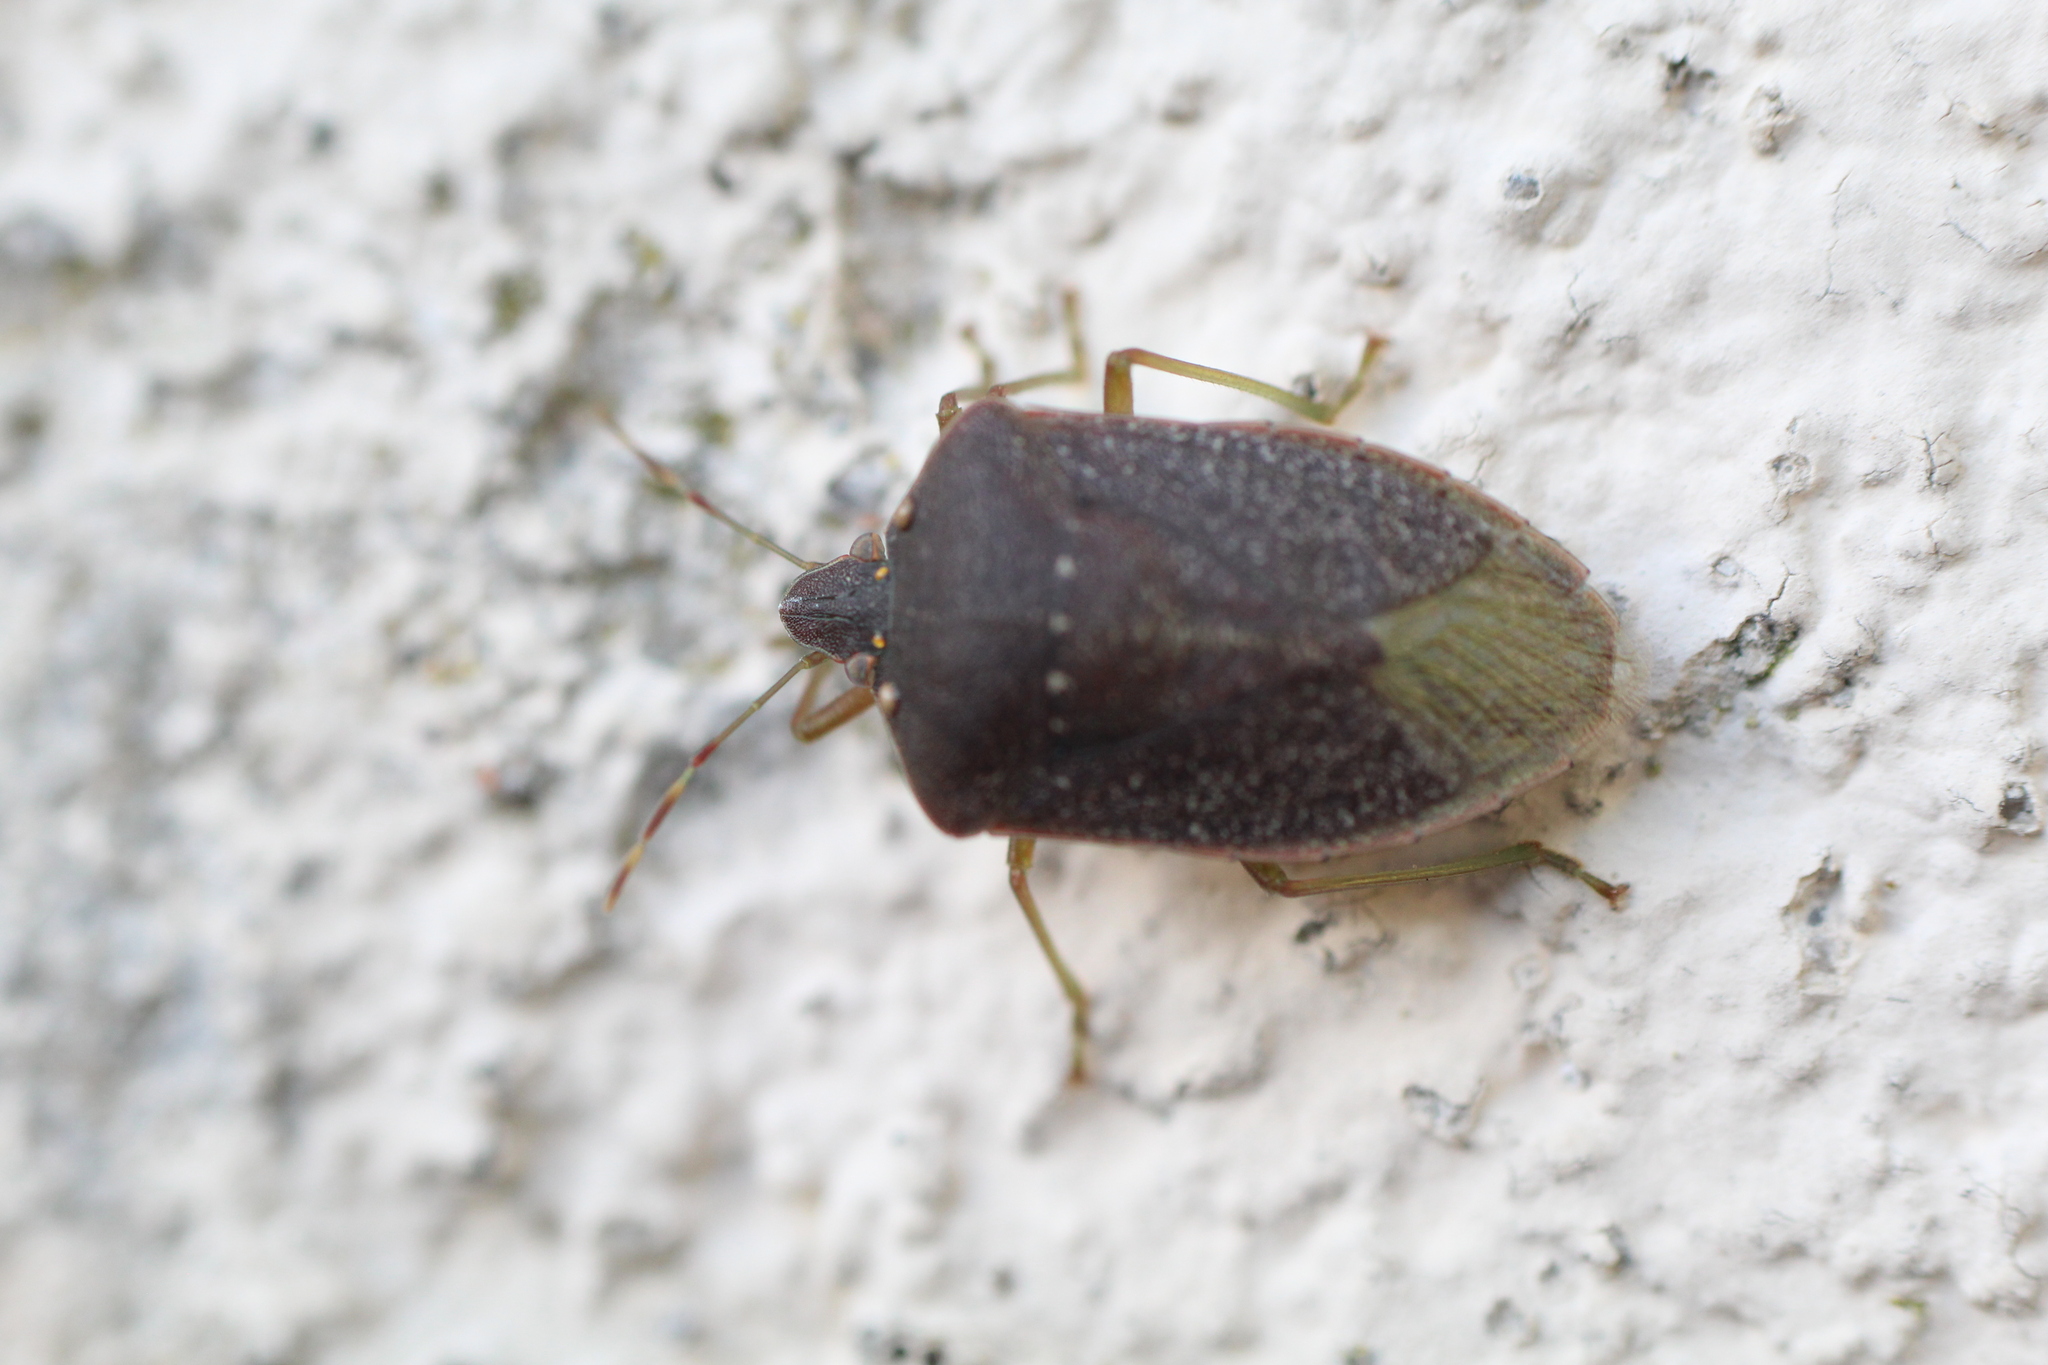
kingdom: Animalia
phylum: Arthropoda
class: Insecta
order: Hemiptera
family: Pentatomidae
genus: Nezara
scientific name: Nezara viridula
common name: Southern green stink bug
